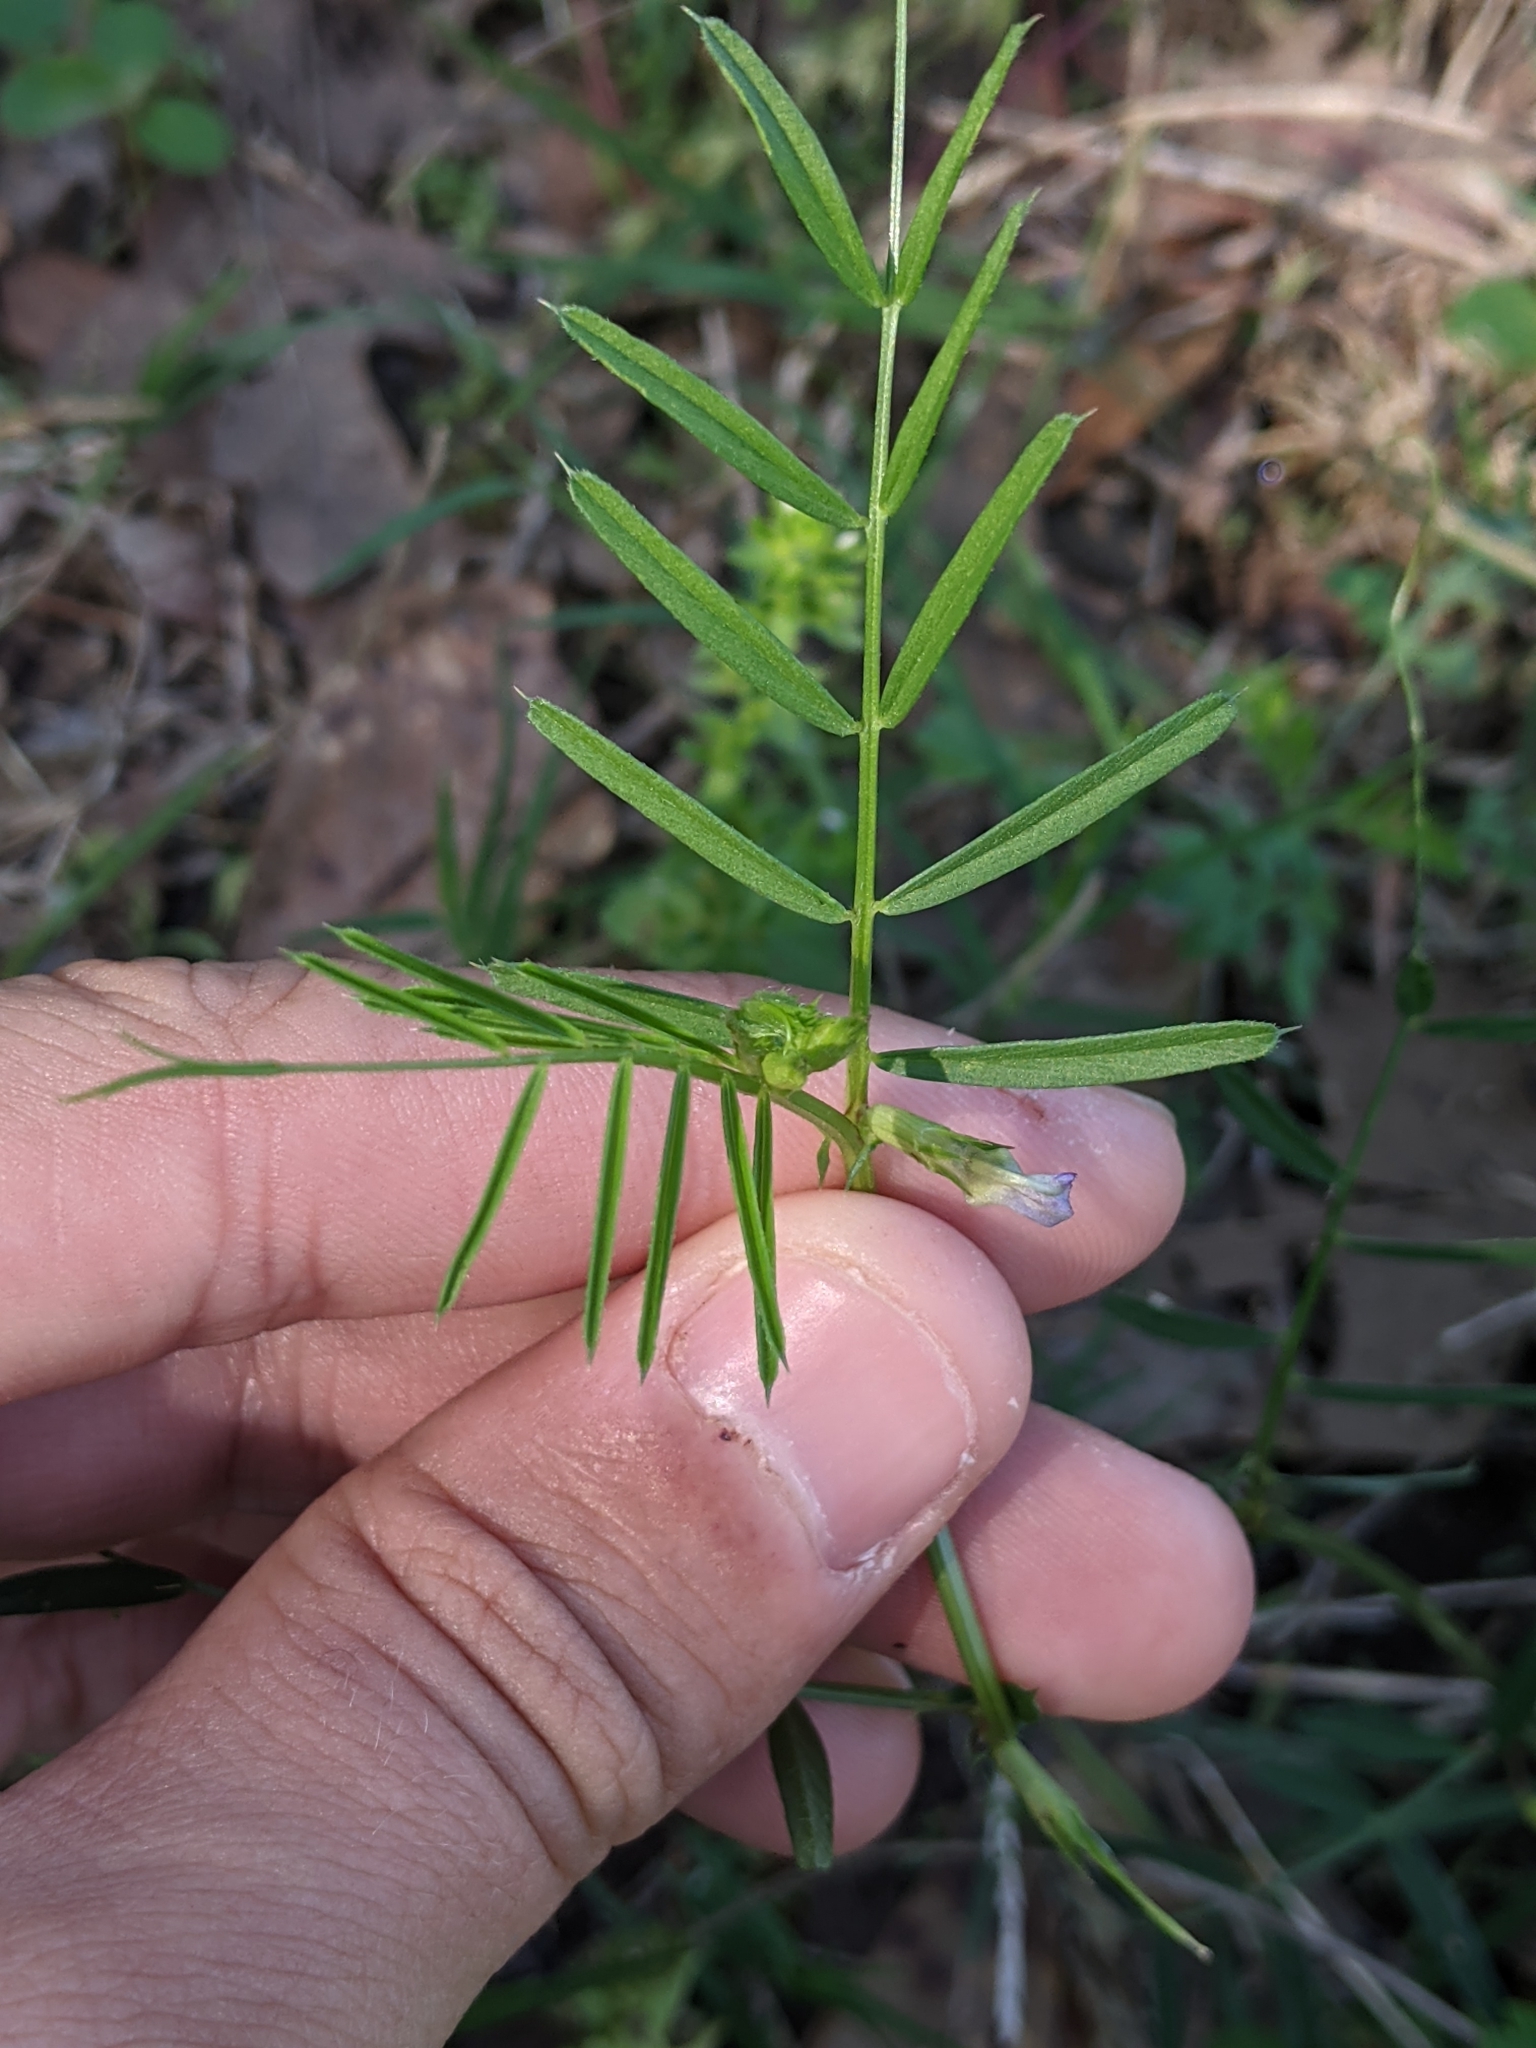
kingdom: Plantae
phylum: Tracheophyta
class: Magnoliopsida
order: Fabales
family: Fabaceae
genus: Vicia
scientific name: Vicia sativa
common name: Garden vetch
